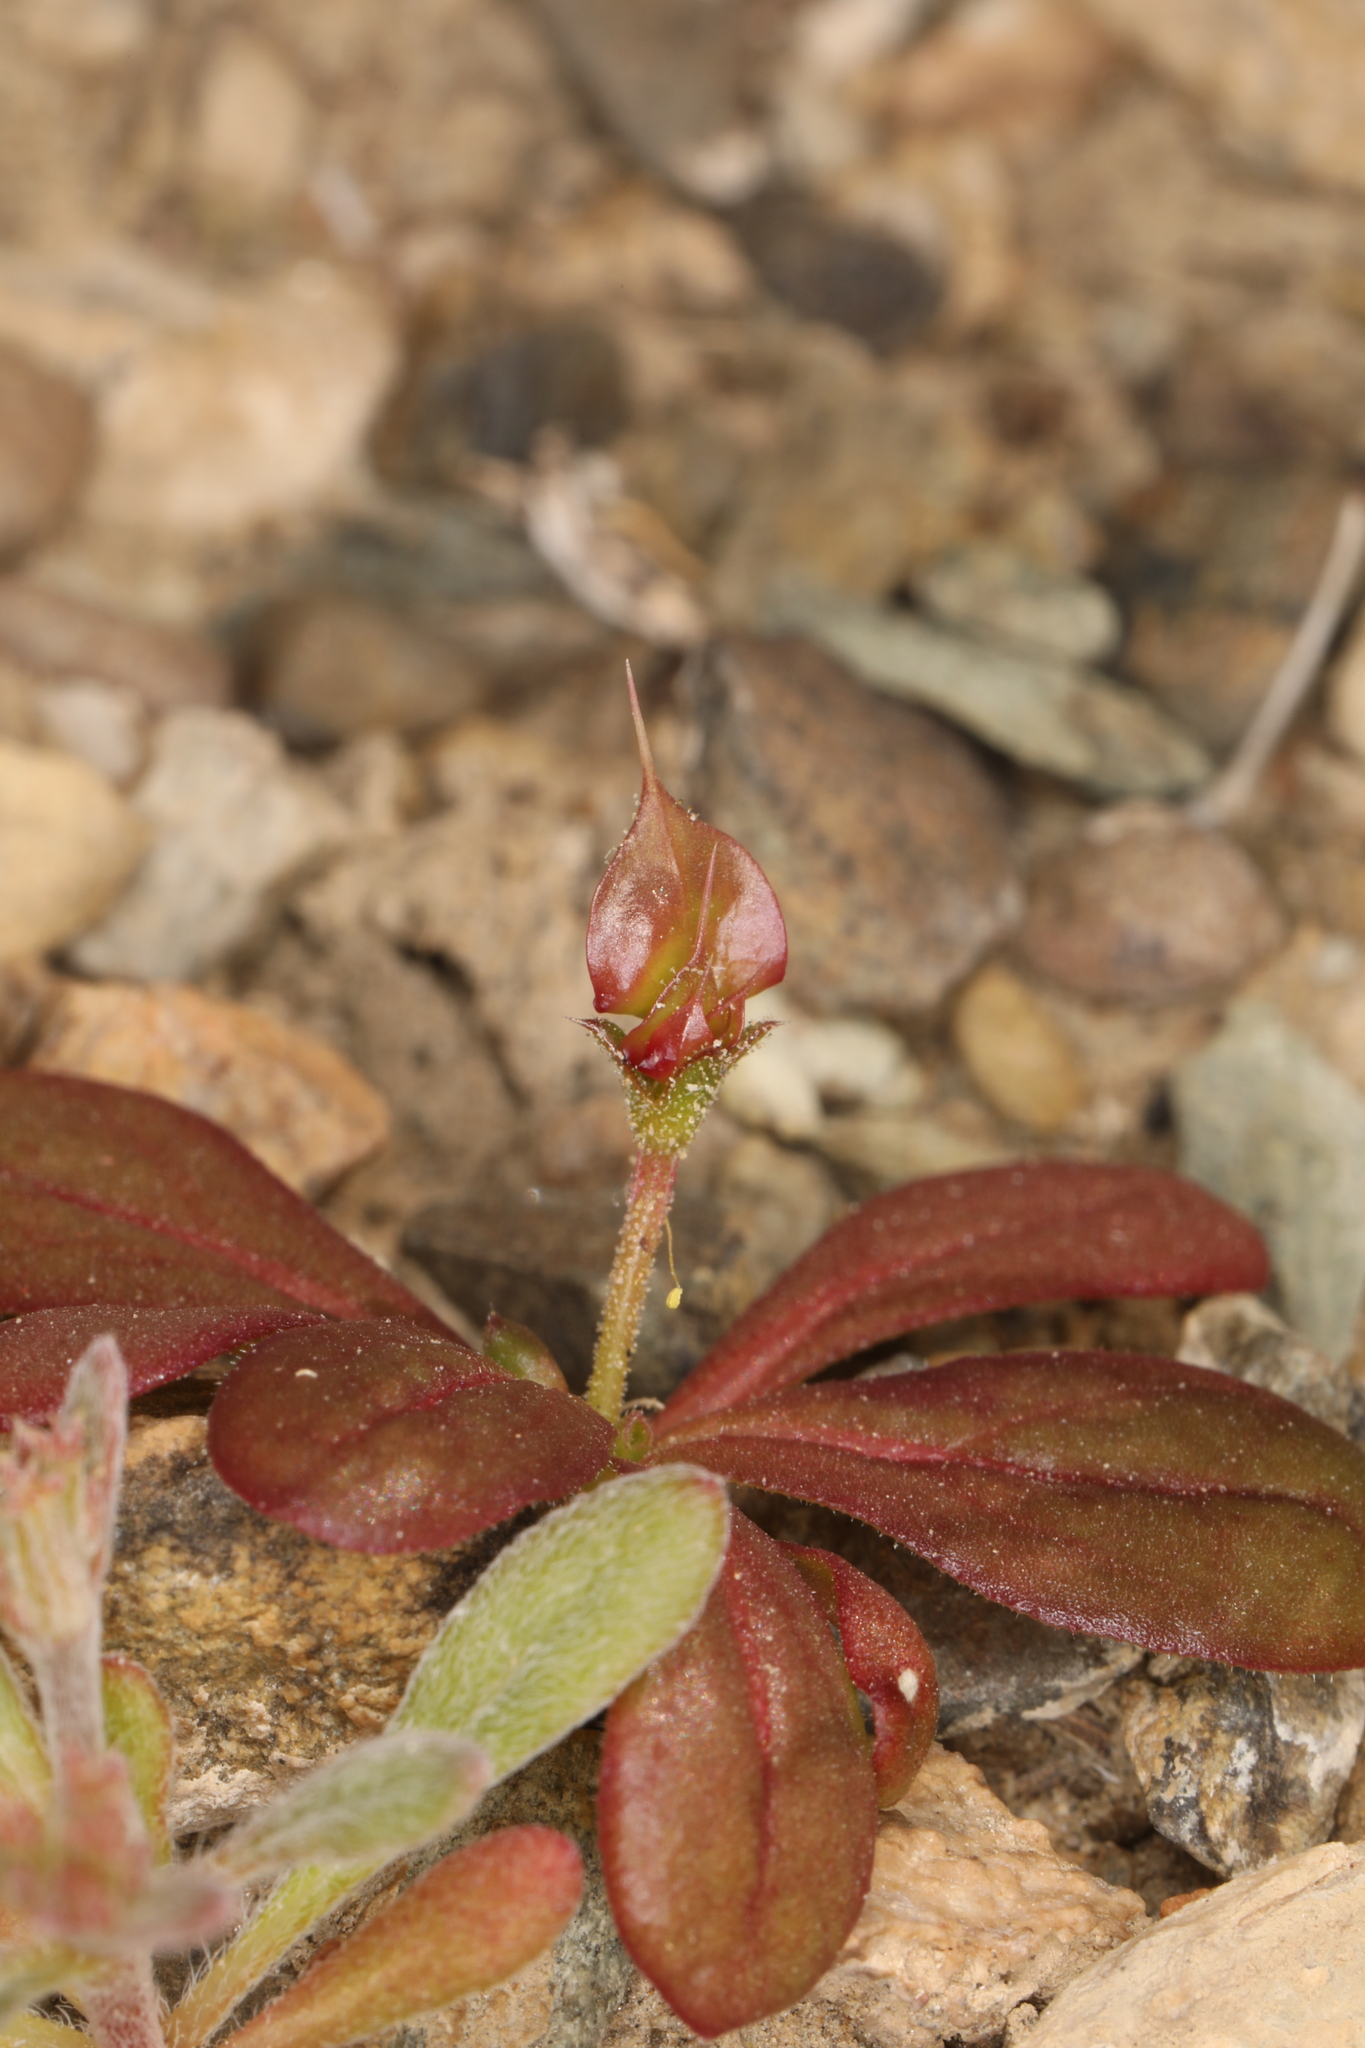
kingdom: Plantae
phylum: Tracheophyta
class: Magnoliopsida
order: Caryophyllales
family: Polygonaceae
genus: Oxytheca
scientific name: Oxytheca perfoliata
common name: Round-leaf puncturebract
